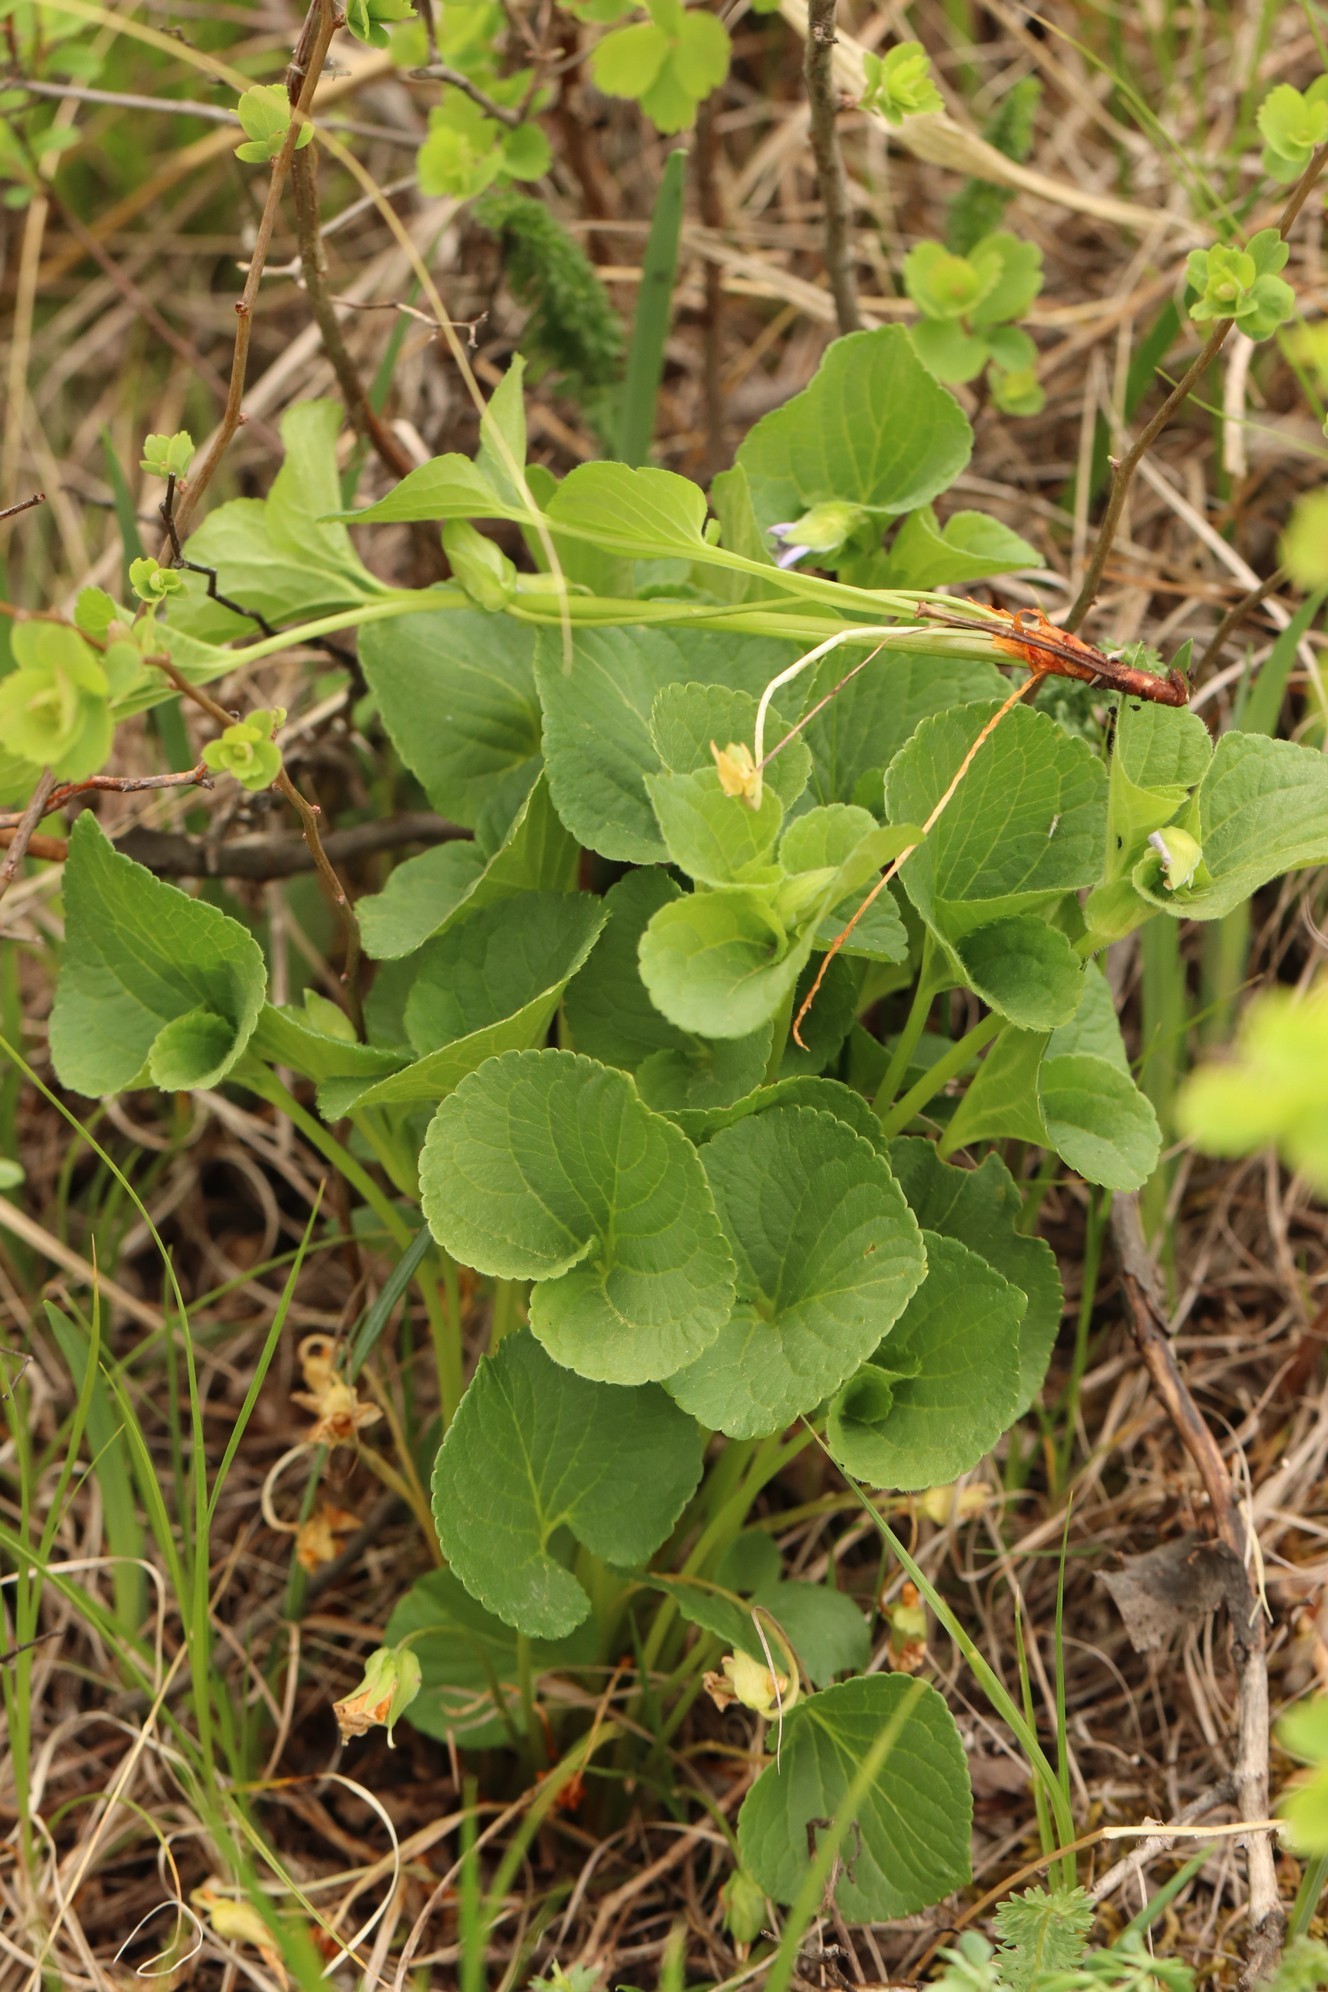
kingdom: Plantae
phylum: Tracheophyta
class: Magnoliopsida
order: Malpighiales
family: Violaceae
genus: Viola
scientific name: Viola mirabilis
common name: Wonder violet
